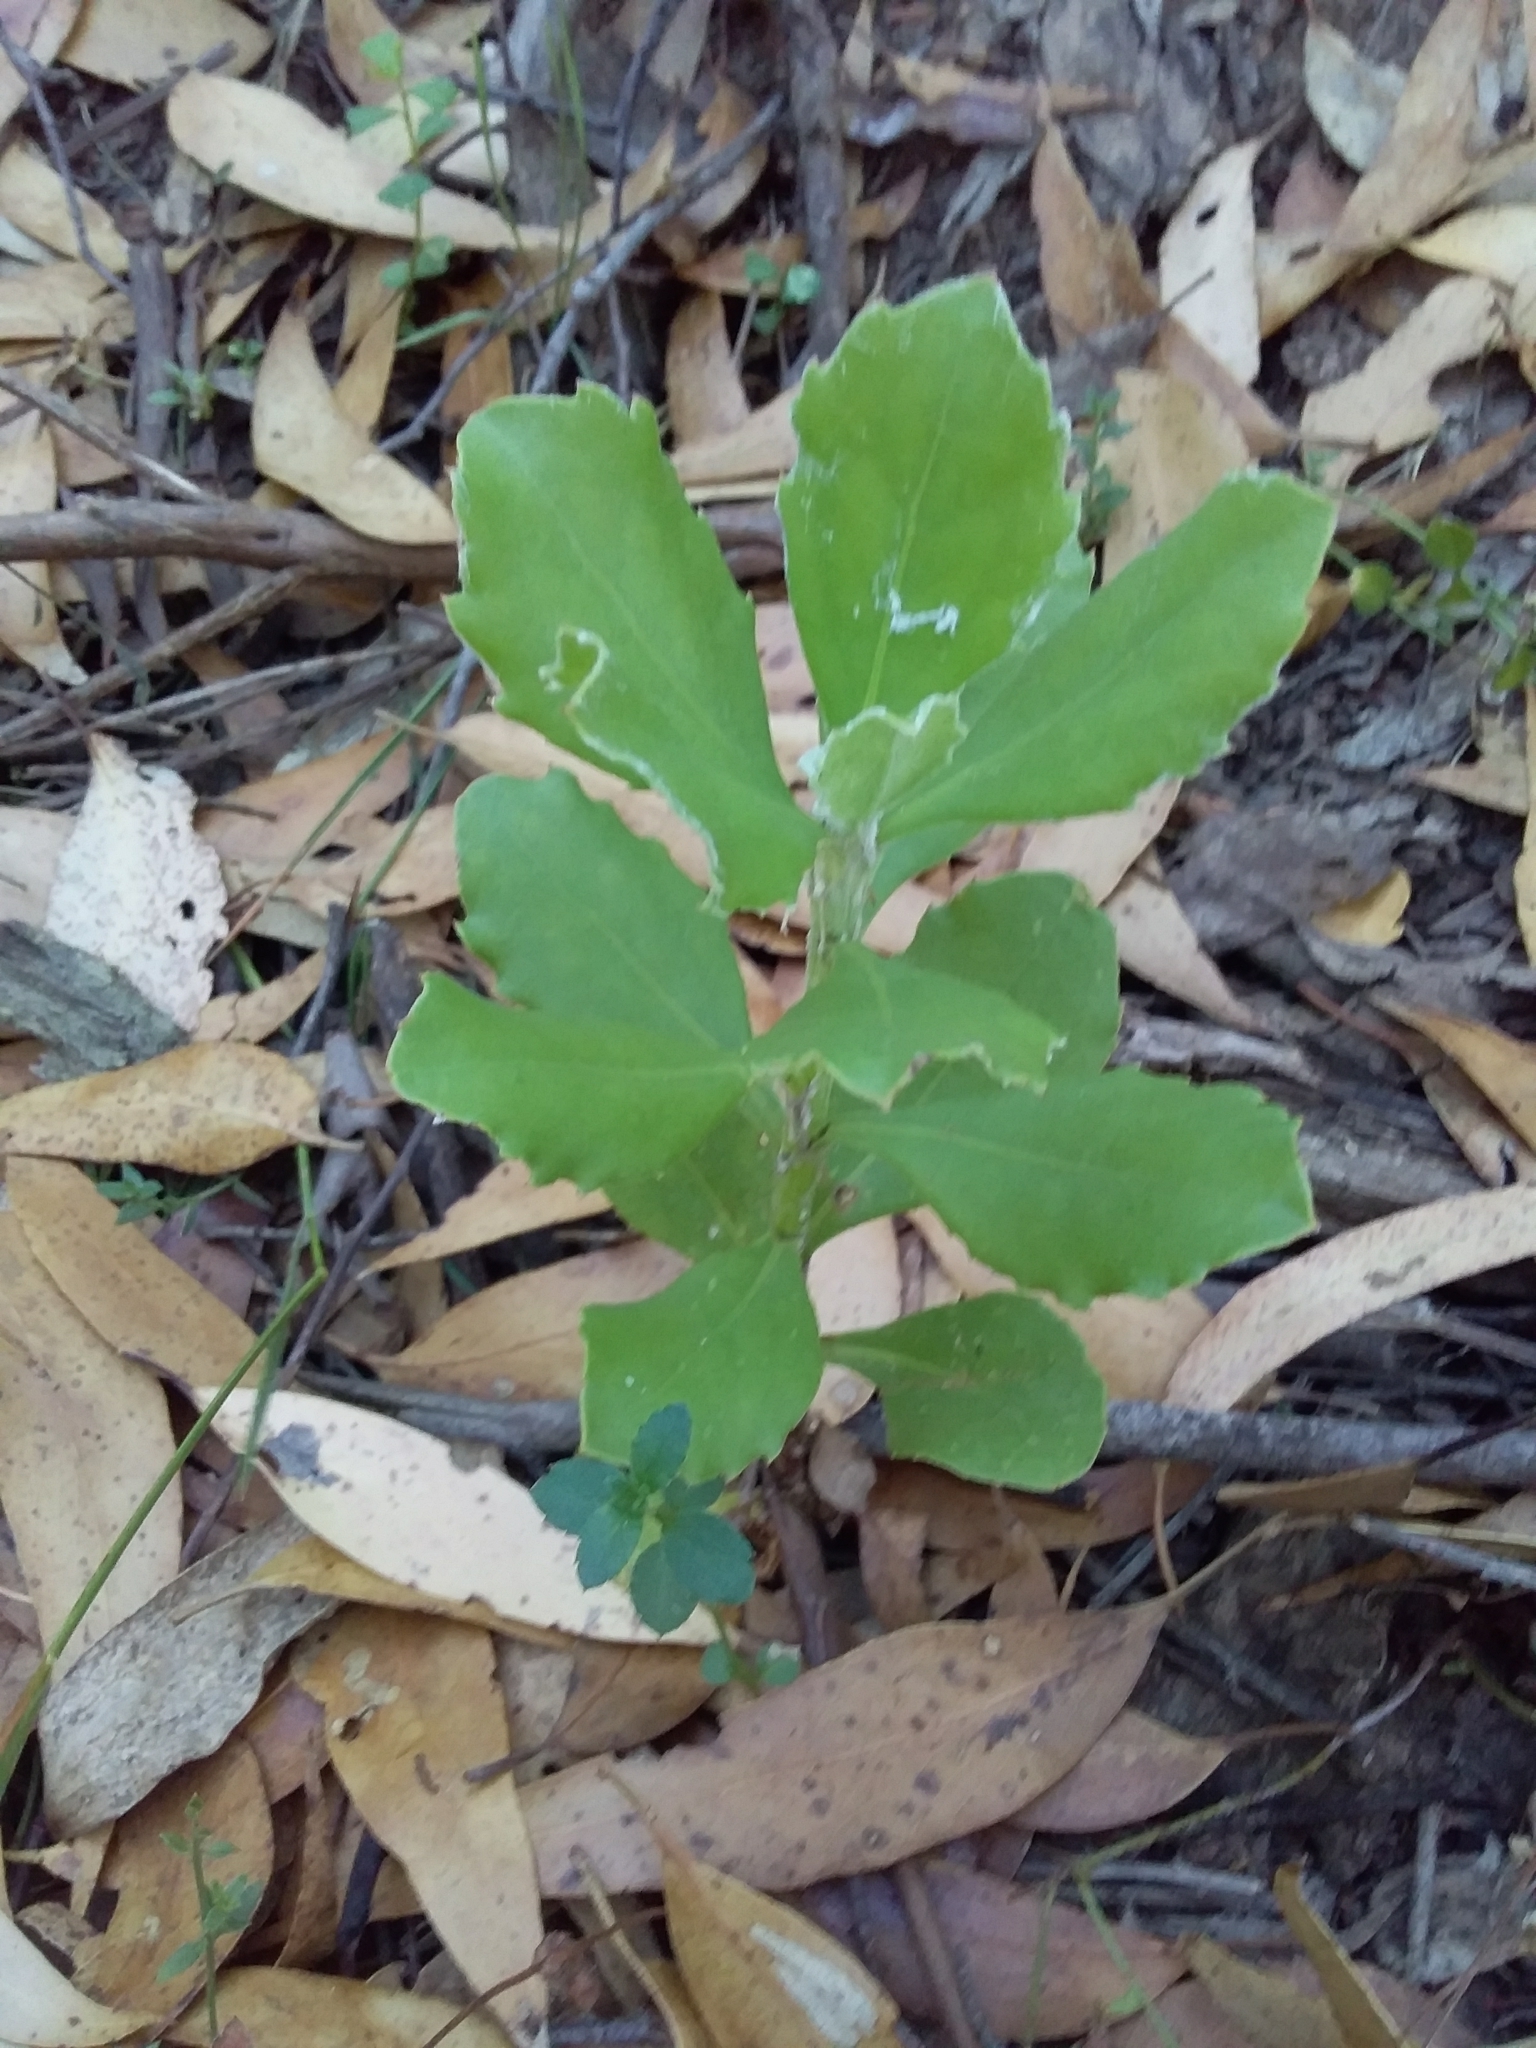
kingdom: Plantae
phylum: Tracheophyta
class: Magnoliopsida
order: Asterales
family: Asteraceae
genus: Osteospermum
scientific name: Osteospermum moniliferum
